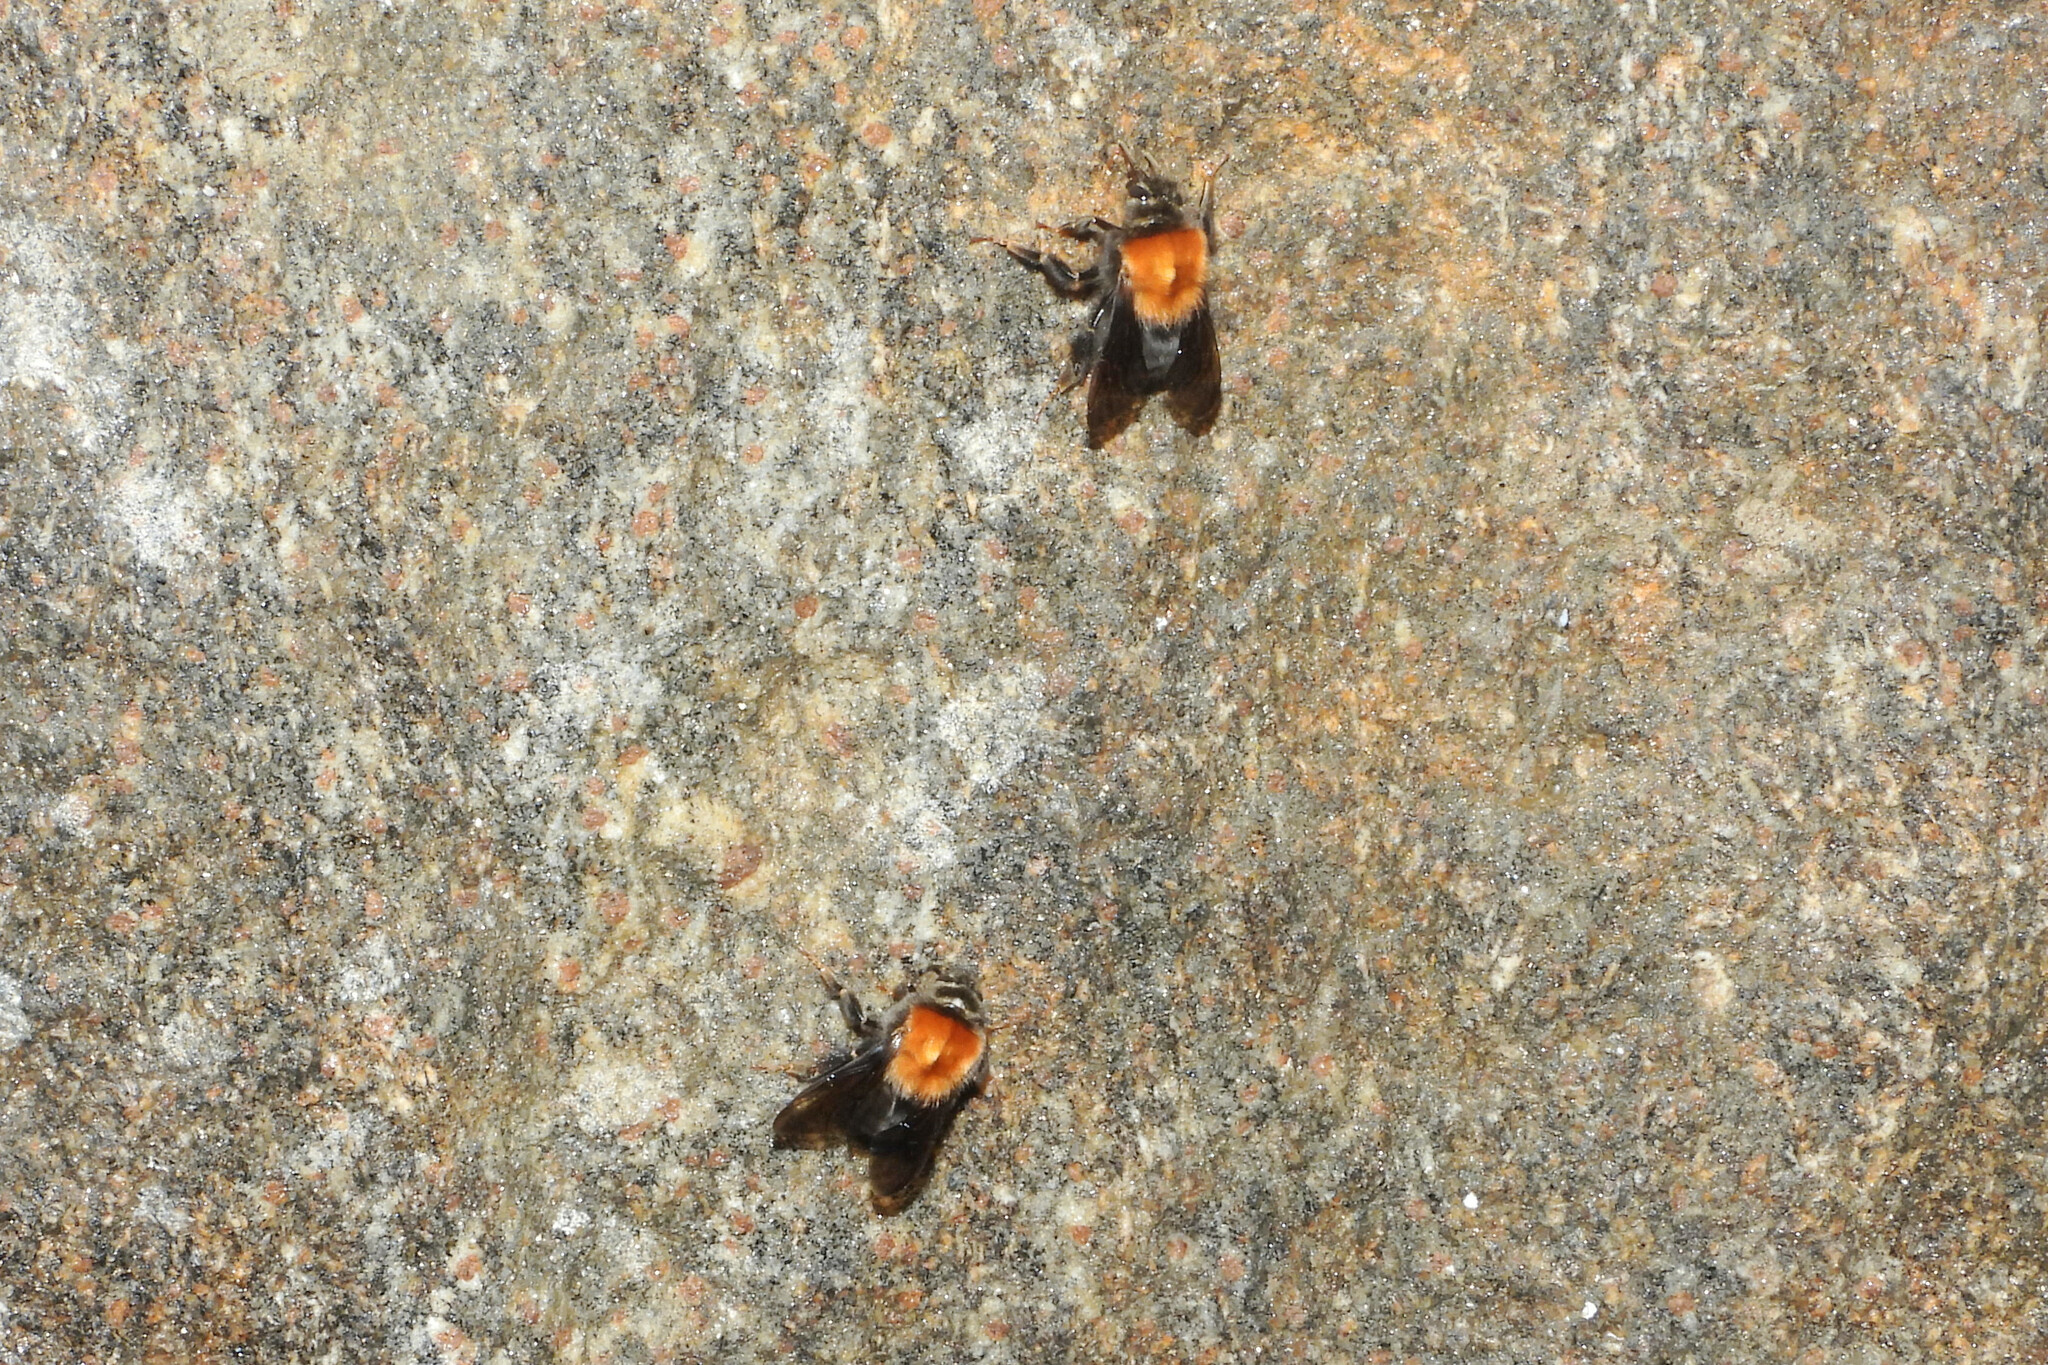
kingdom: Animalia
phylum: Arthropoda
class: Insecta
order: Hymenoptera
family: Apidae
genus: Bombus
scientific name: Bombus festivus
